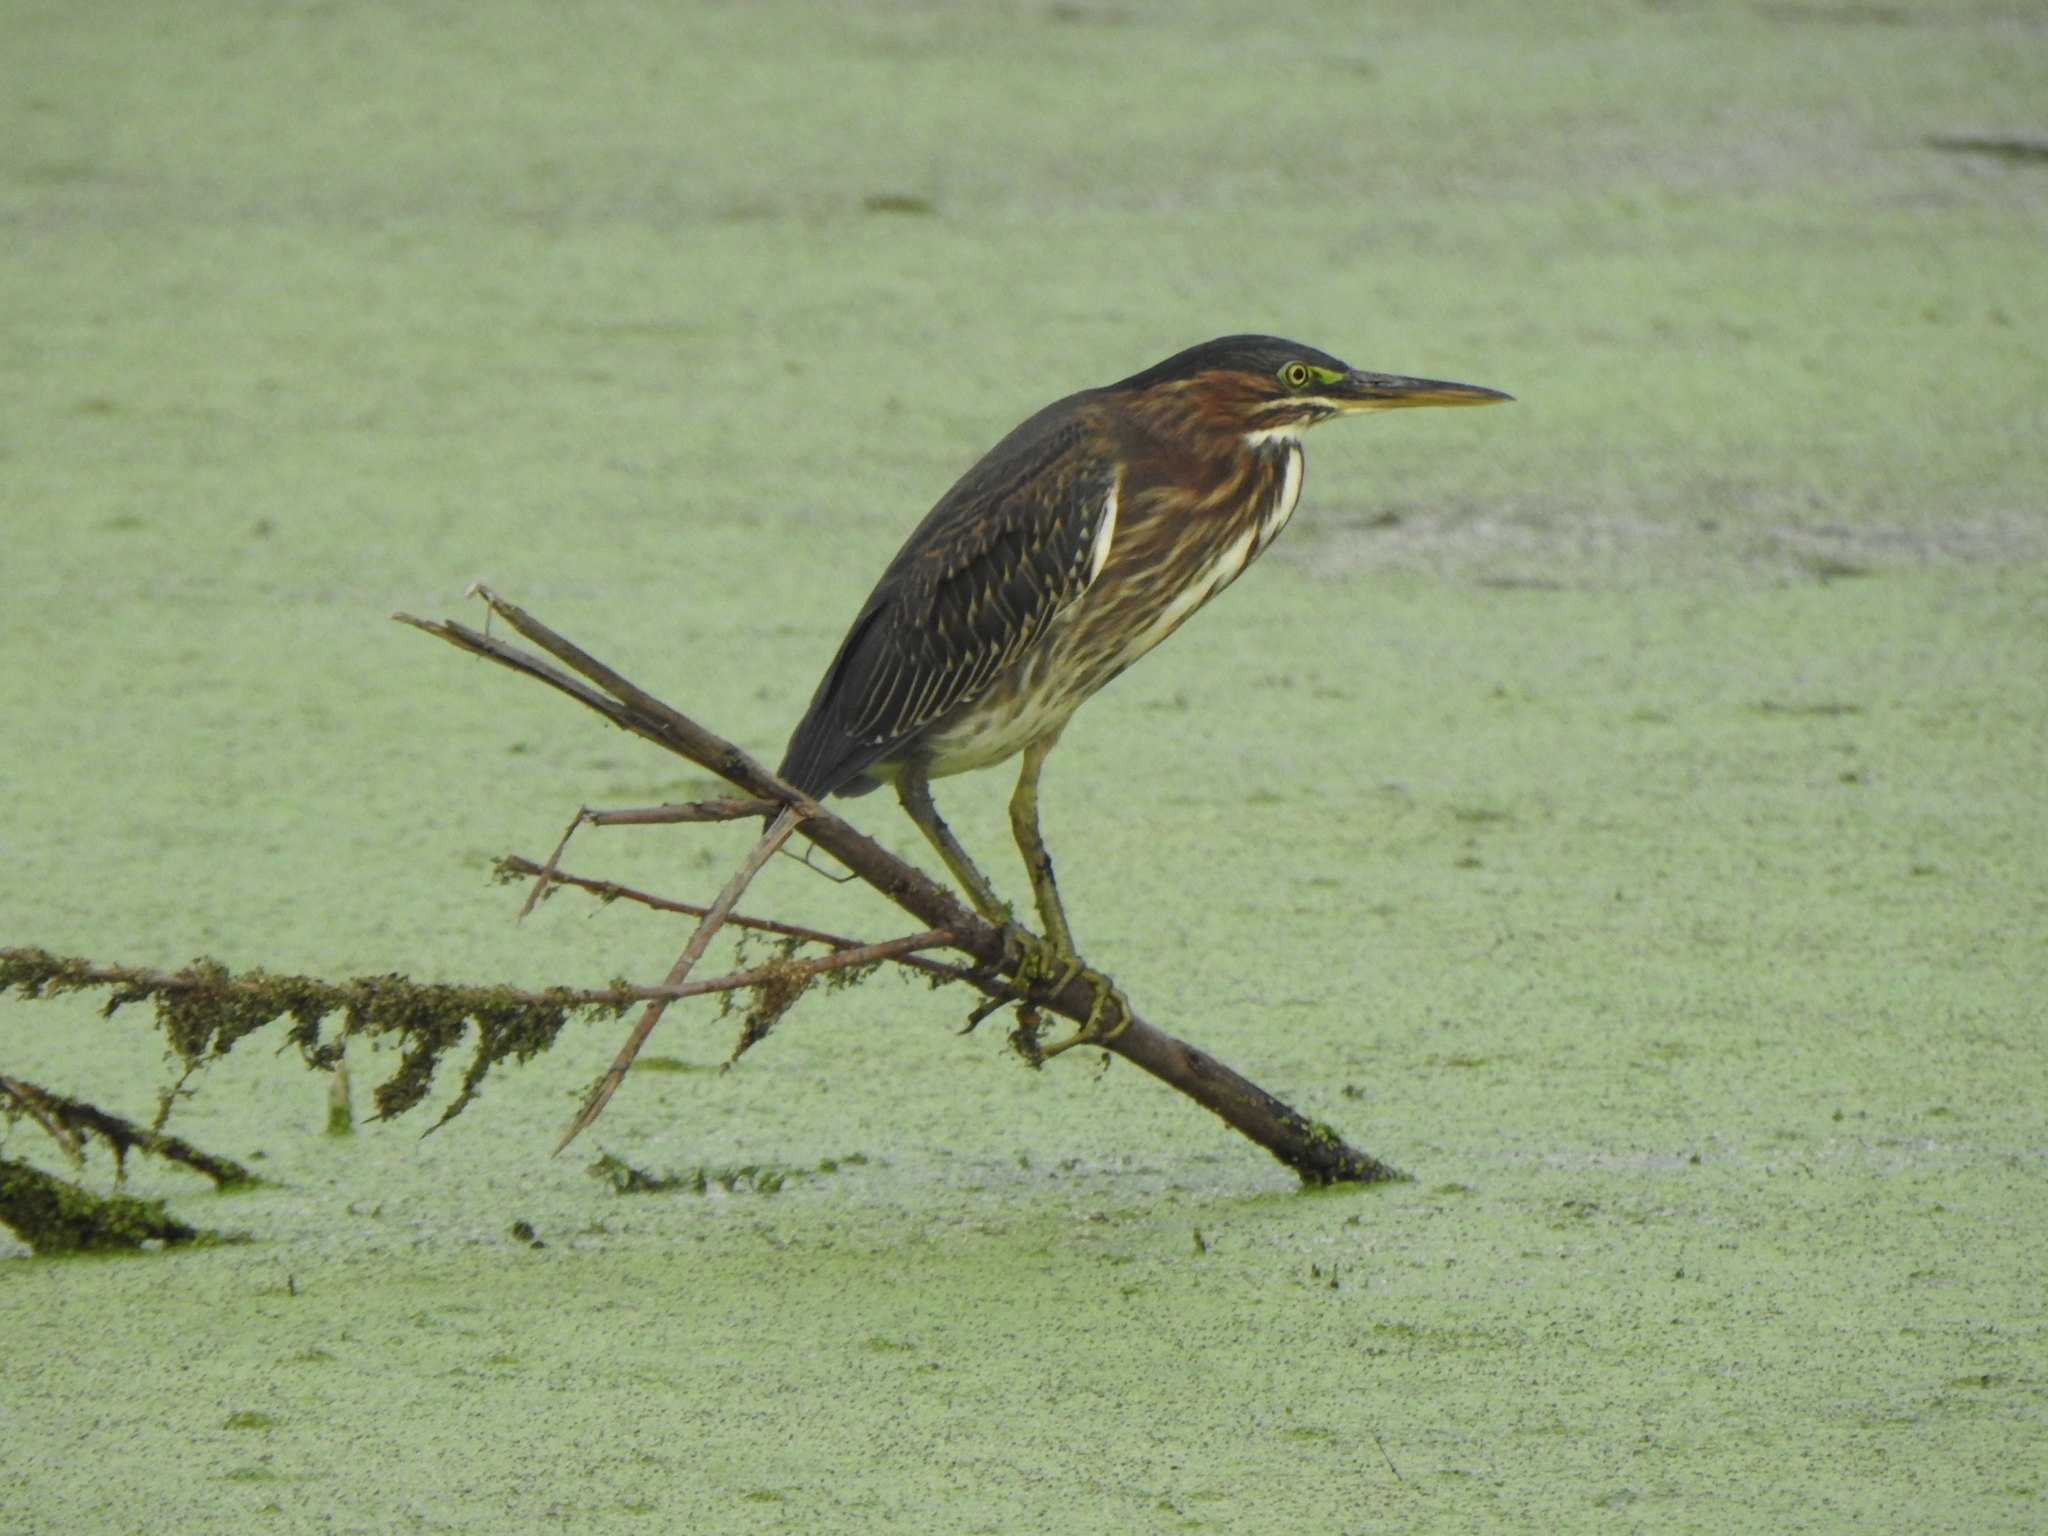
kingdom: Animalia
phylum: Chordata
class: Aves
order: Pelecaniformes
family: Ardeidae
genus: Butorides
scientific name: Butorides virescens
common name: Green heron
